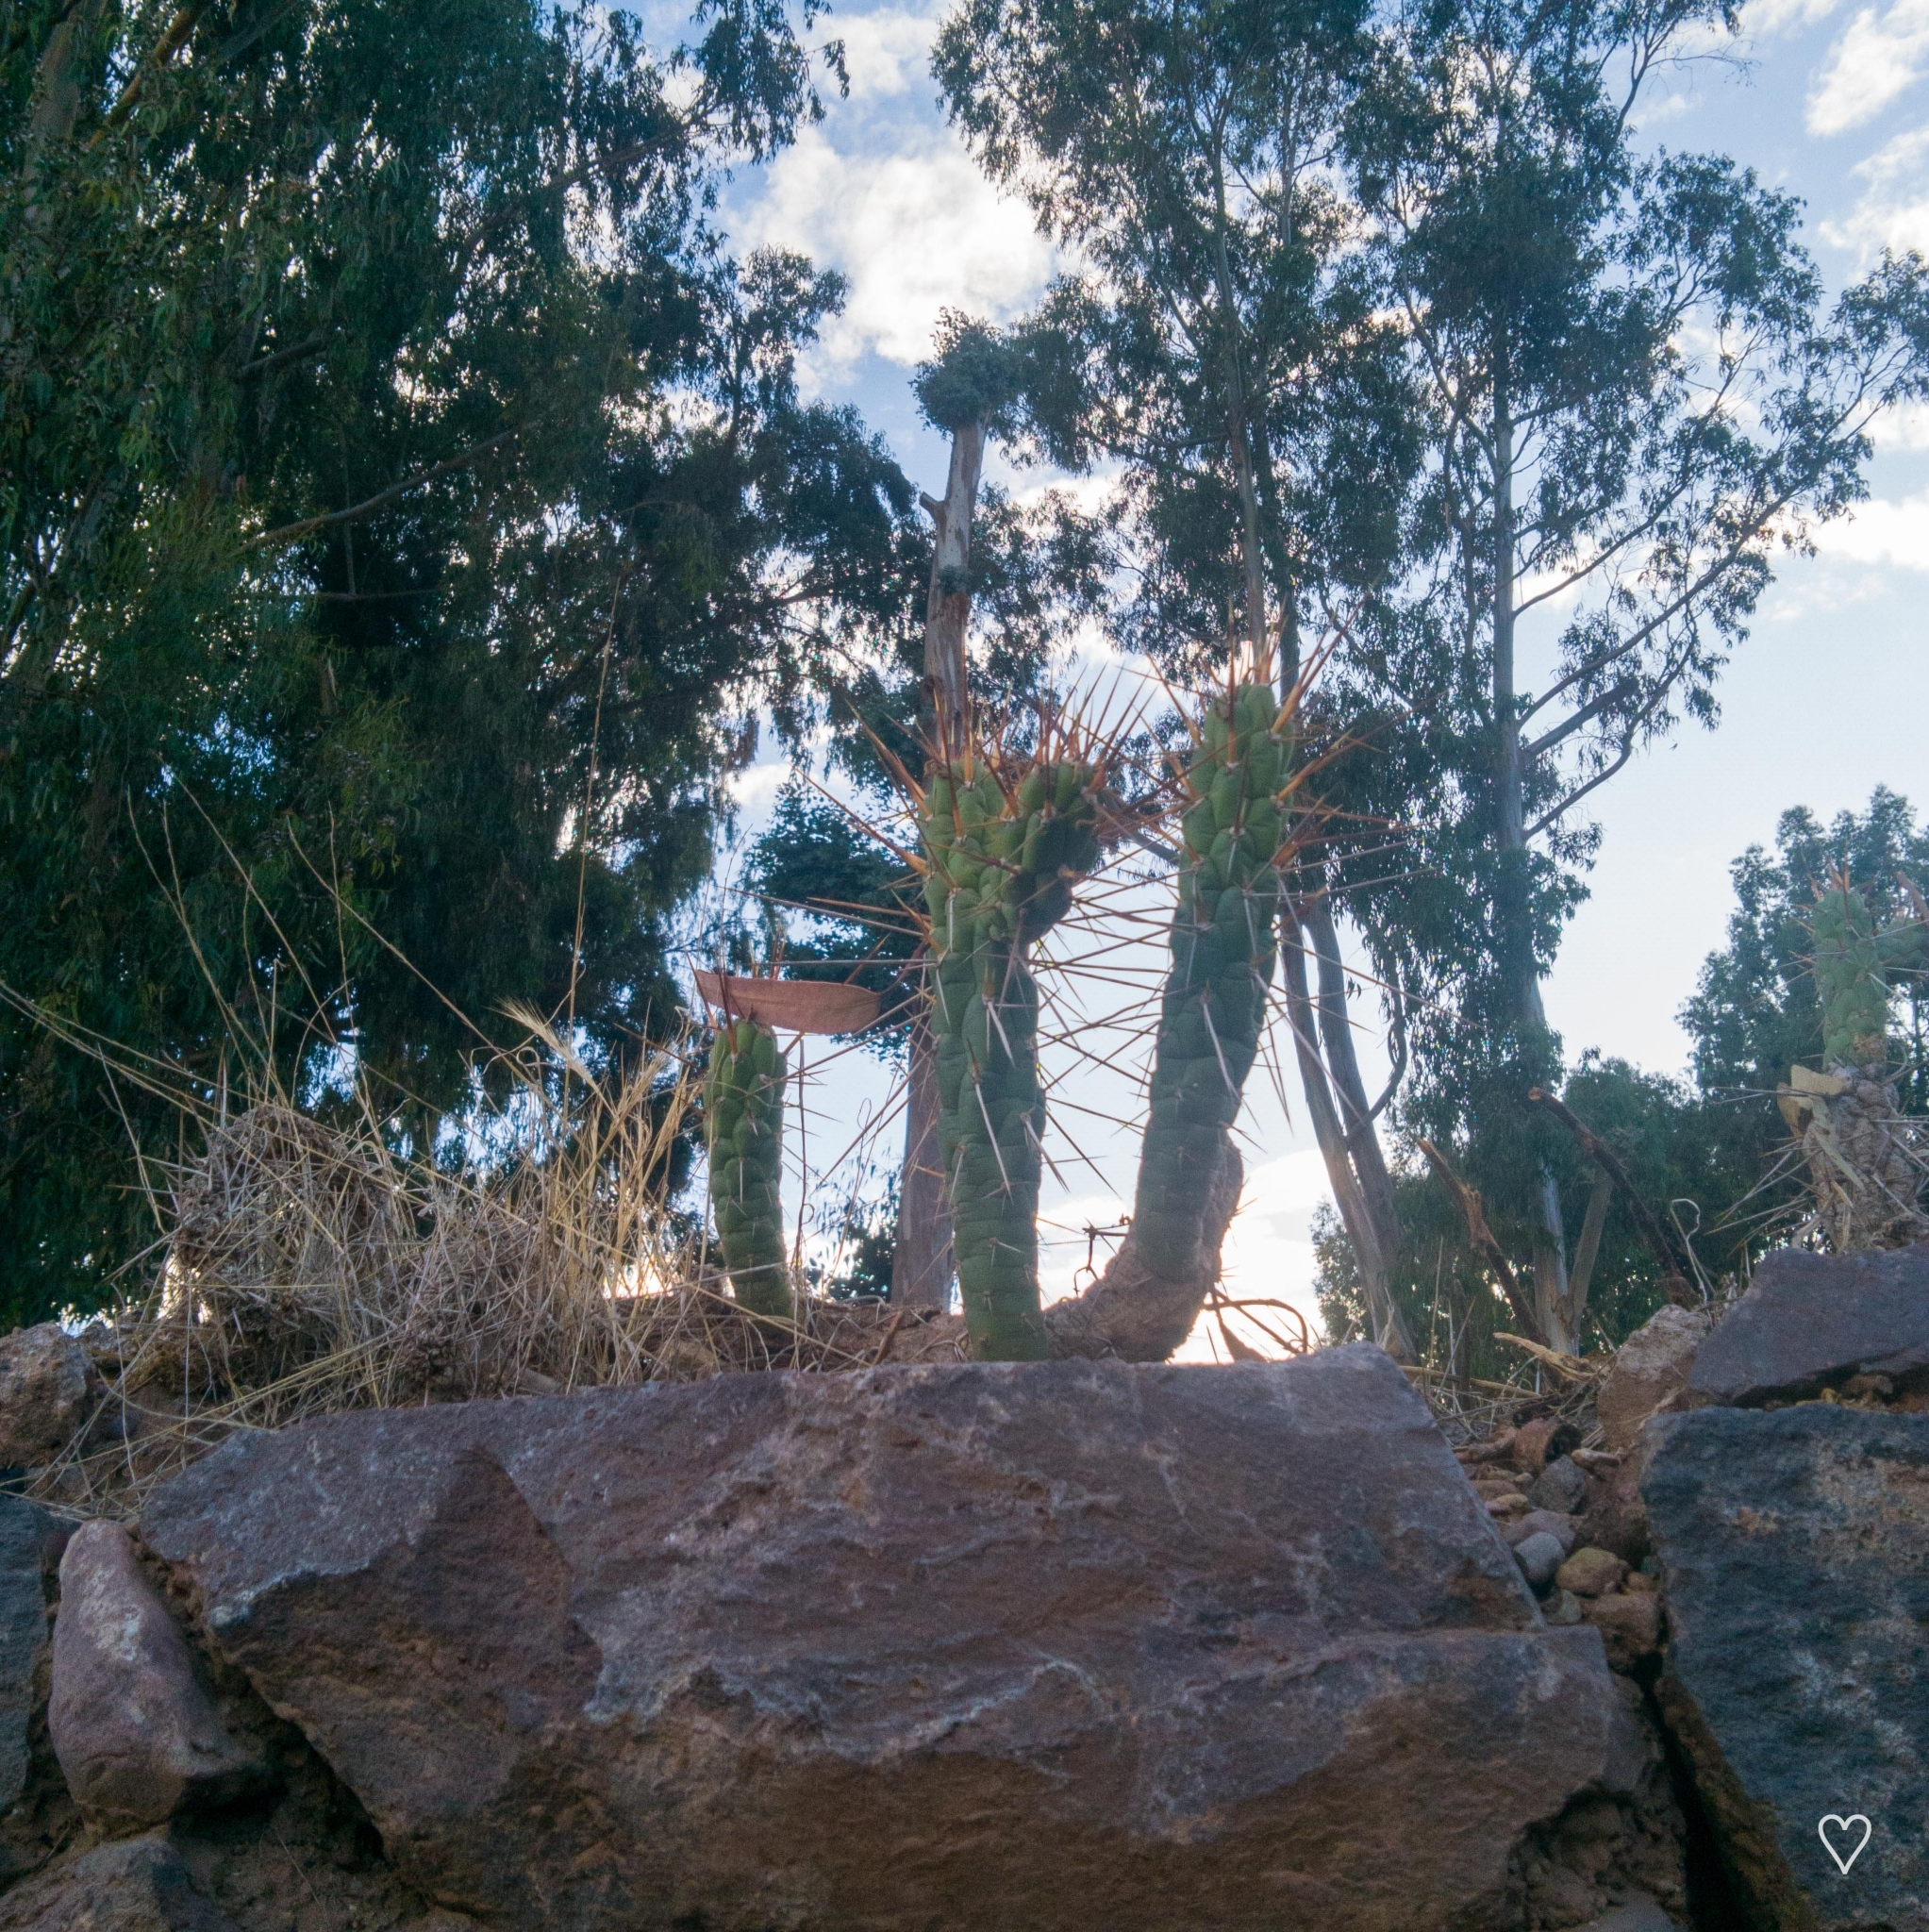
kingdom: Plantae
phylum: Tracheophyta
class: Magnoliopsida
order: Caryophyllales
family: Cactaceae
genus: Austrocylindropuntia
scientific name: Austrocylindropuntia subulata
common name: Eve's needle cactus
